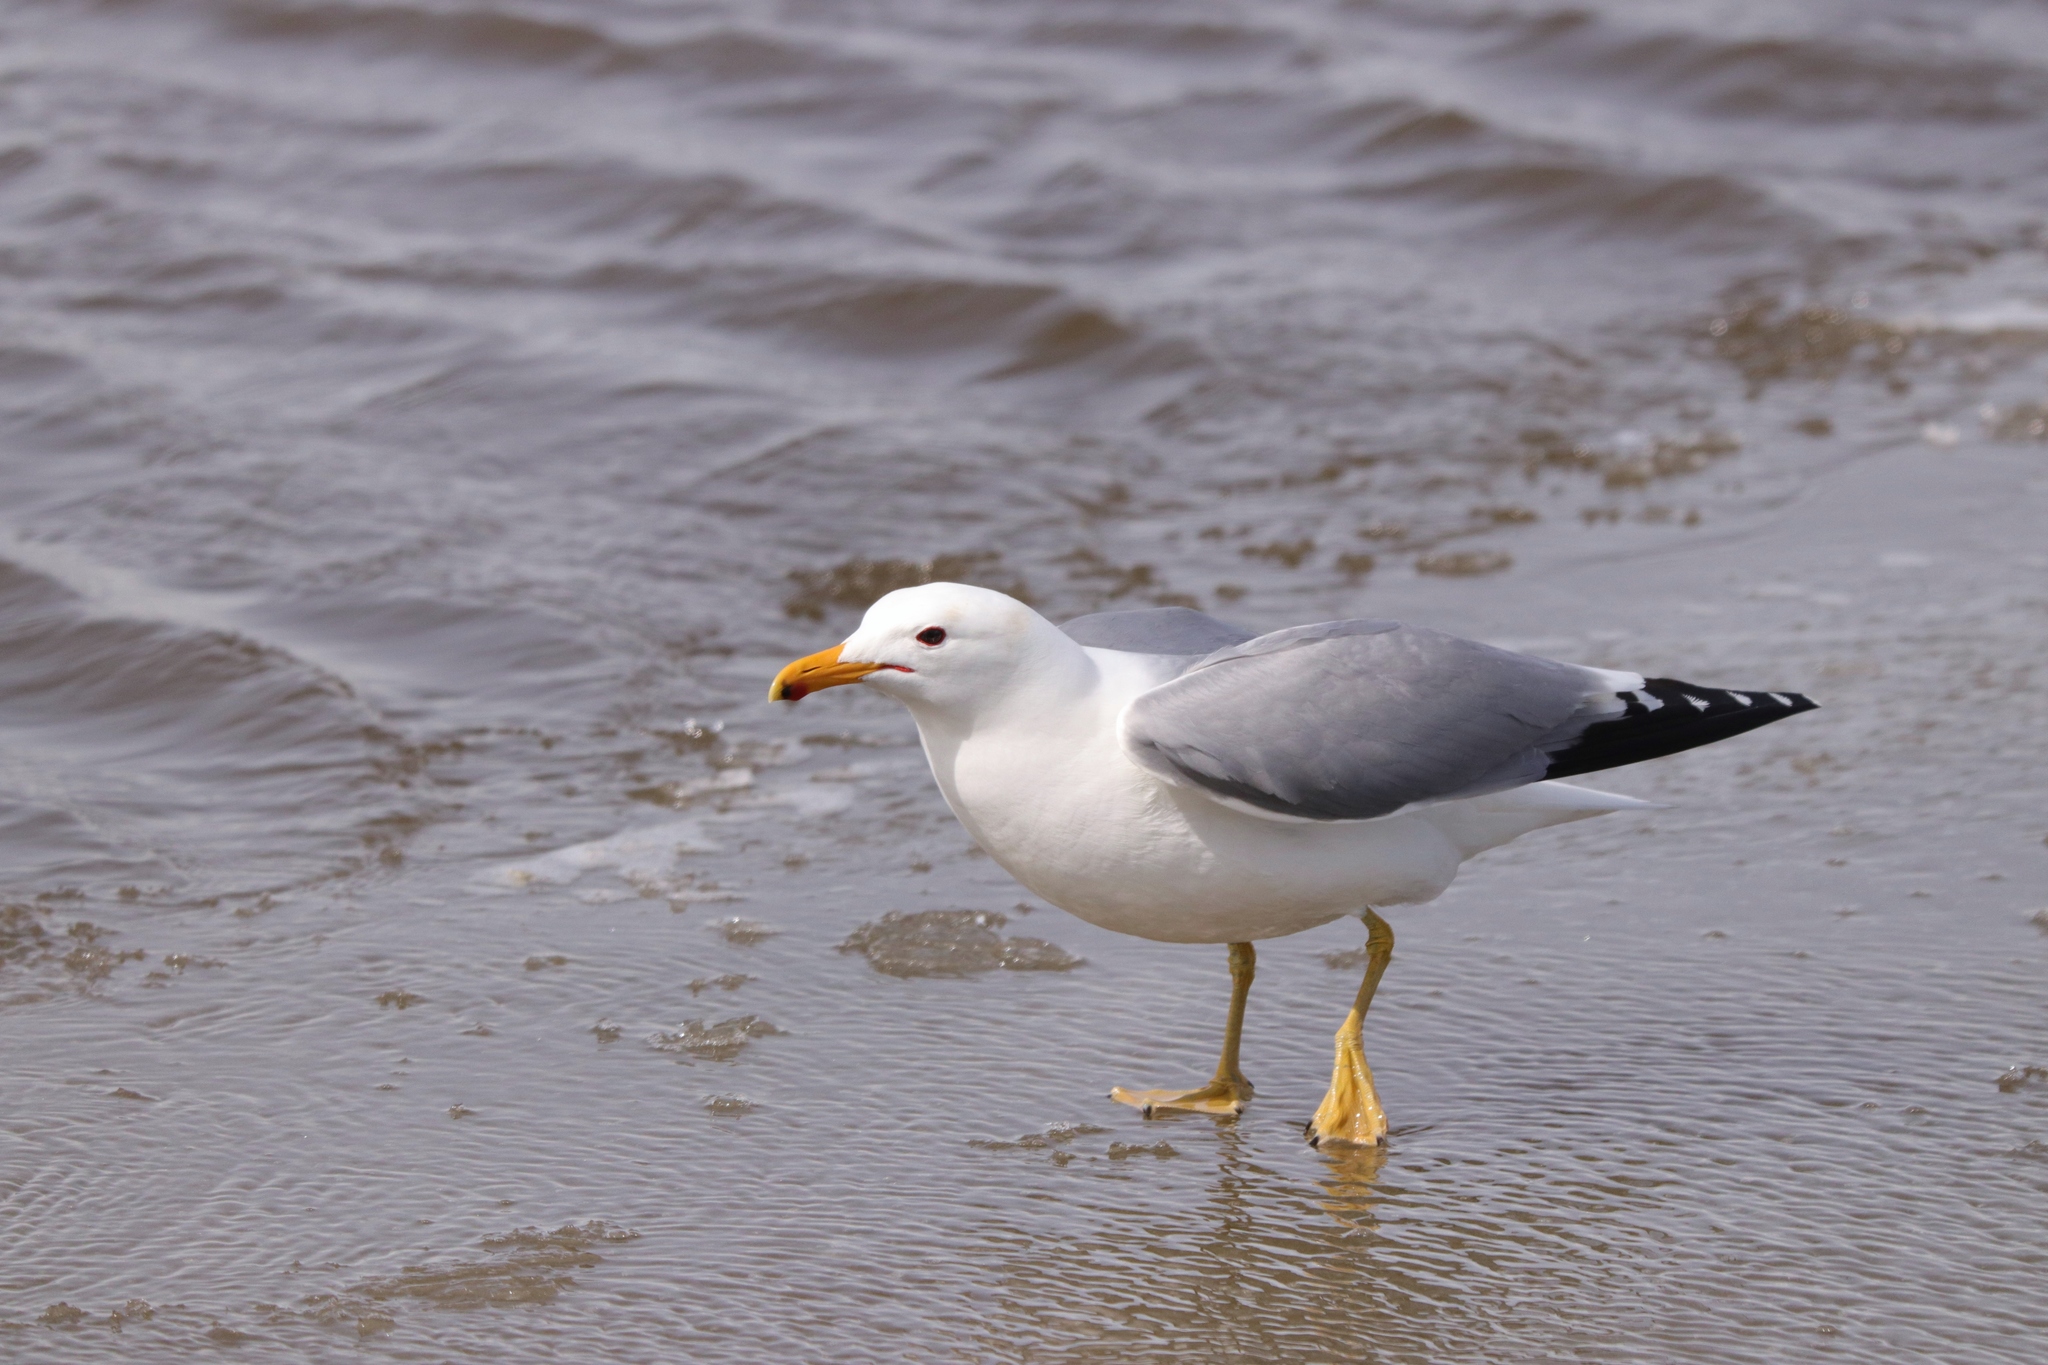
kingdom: Animalia
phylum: Chordata
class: Aves
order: Charadriiformes
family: Laridae
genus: Larus
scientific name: Larus californicus
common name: California gull
